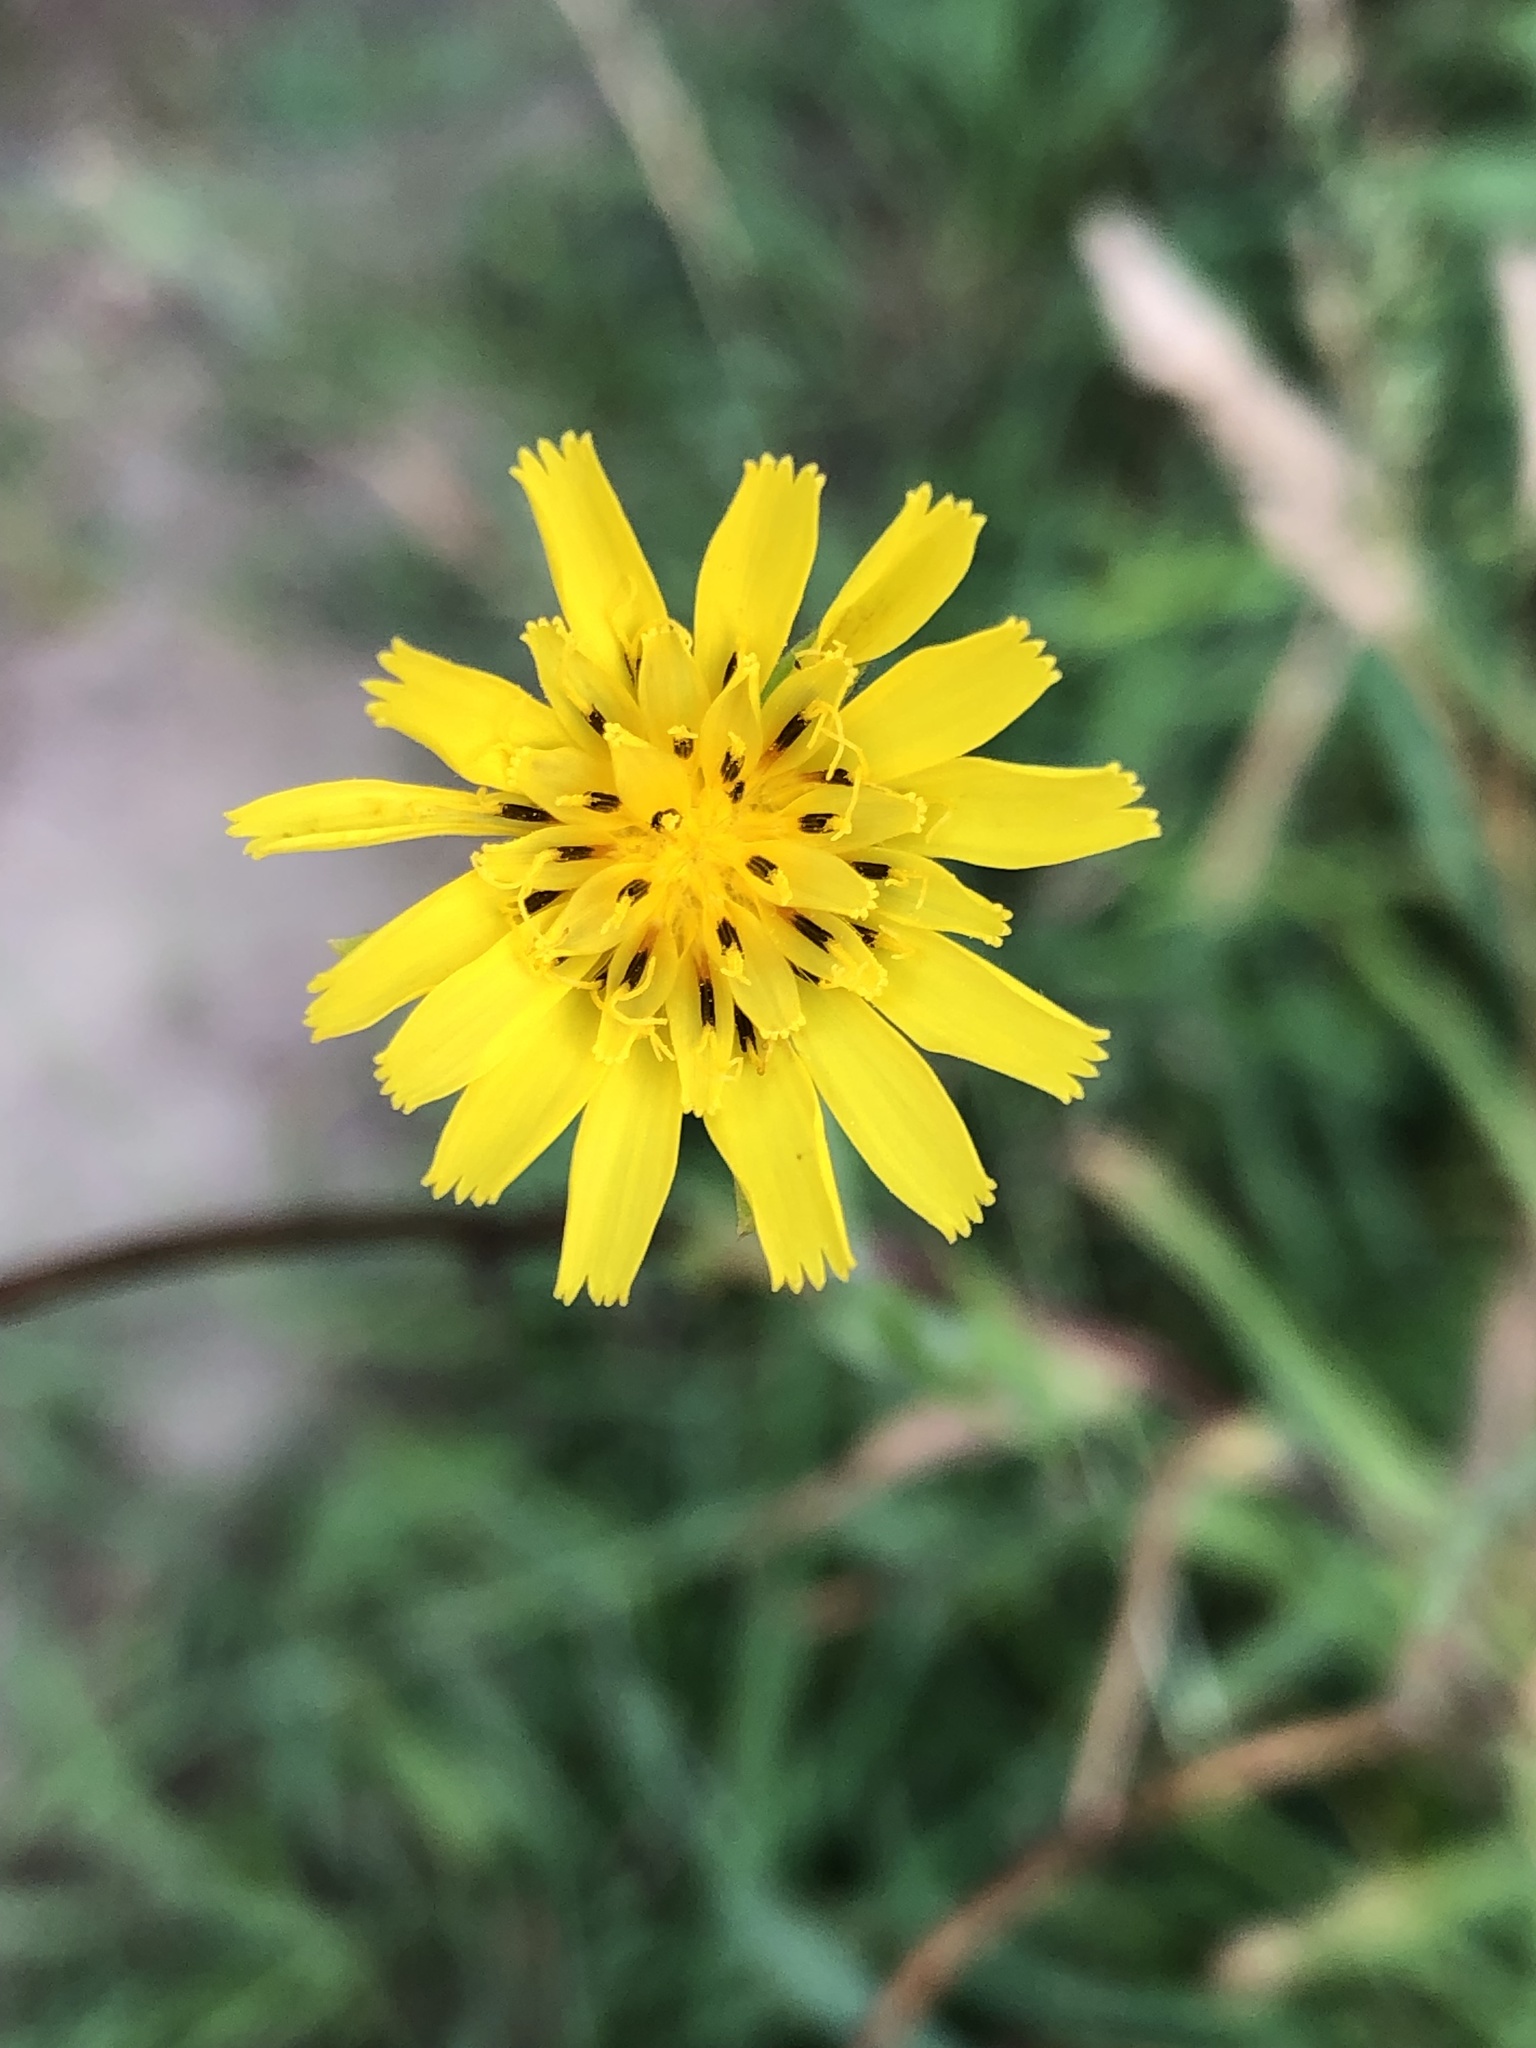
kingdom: Plantae
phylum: Tracheophyta
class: Magnoliopsida
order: Asterales
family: Asteraceae
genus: Tragopogon
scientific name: Tragopogon pratensis
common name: Goat's-beard
